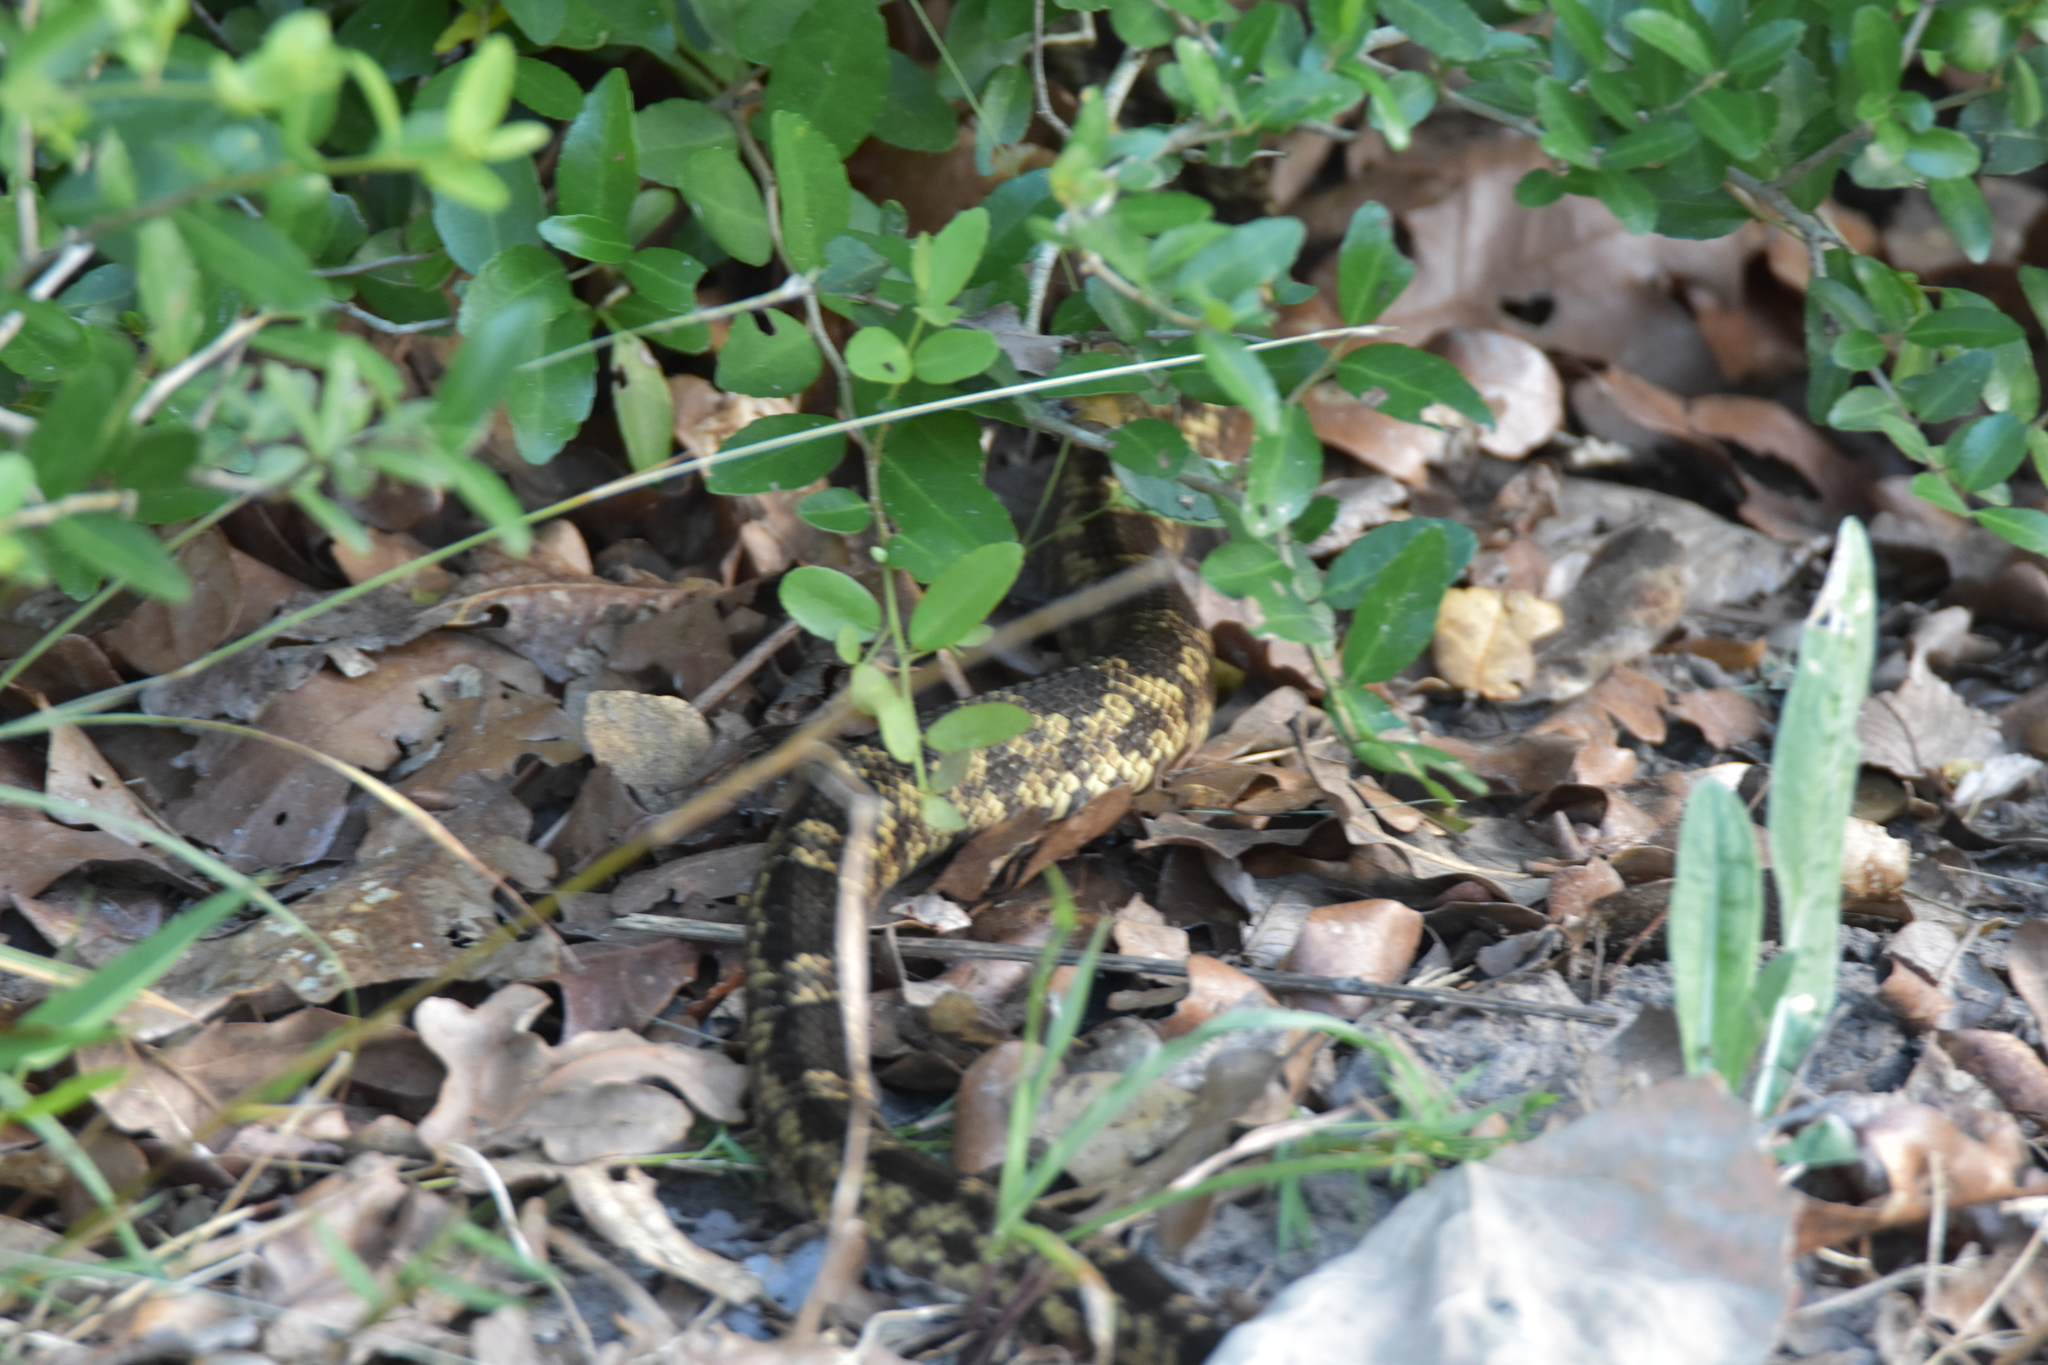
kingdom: Animalia
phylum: Chordata
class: Squamata
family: Colubridae
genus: Pantherophis
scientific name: Pantherophis obsoletus
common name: Black rat snake
